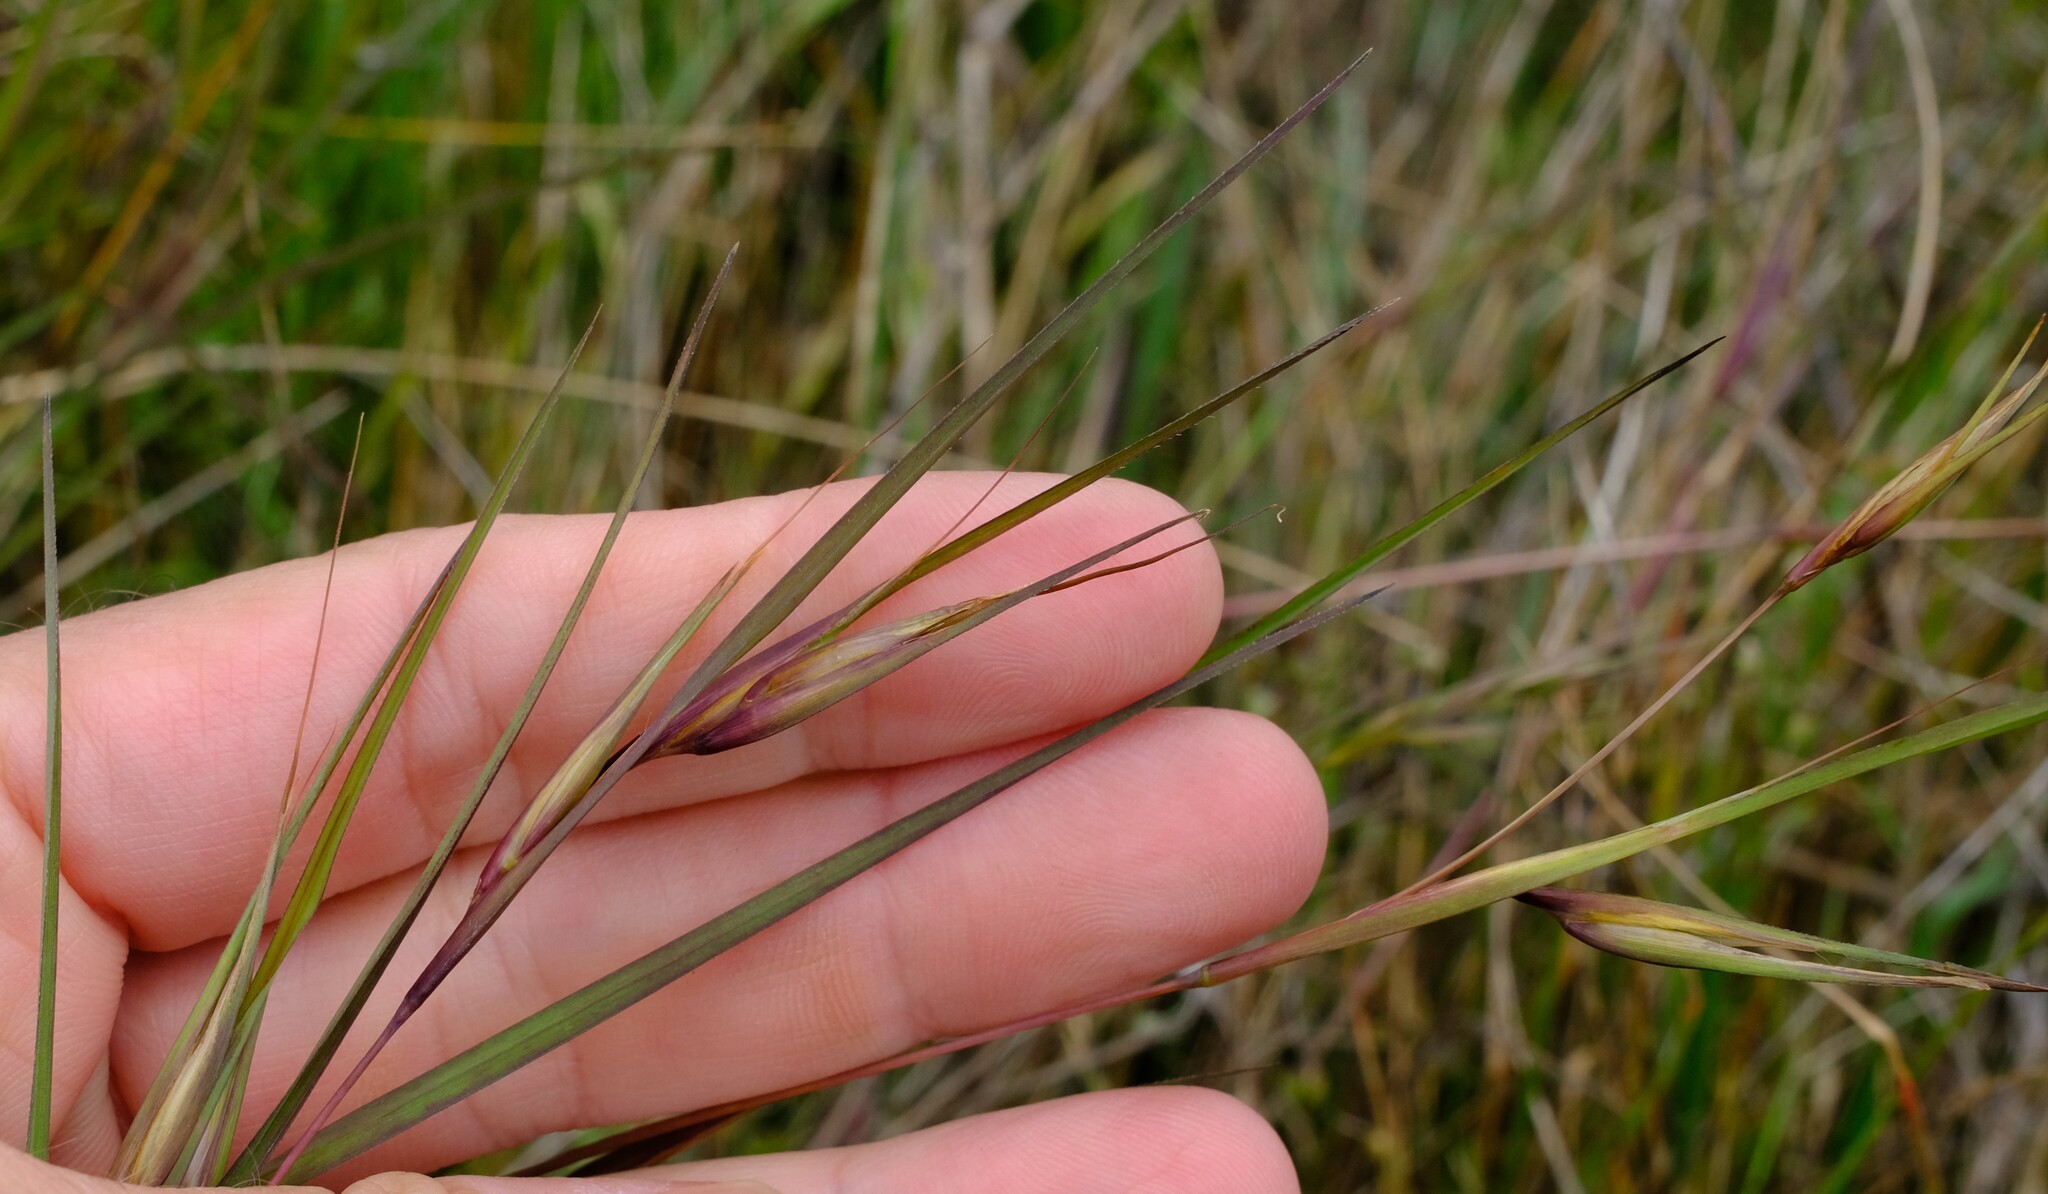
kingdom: Plantae
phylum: Tracheophyta
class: Liliopsida
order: Poales
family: Poaceae
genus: Themeda
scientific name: Themeda triandra
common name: Kangaroo grass
